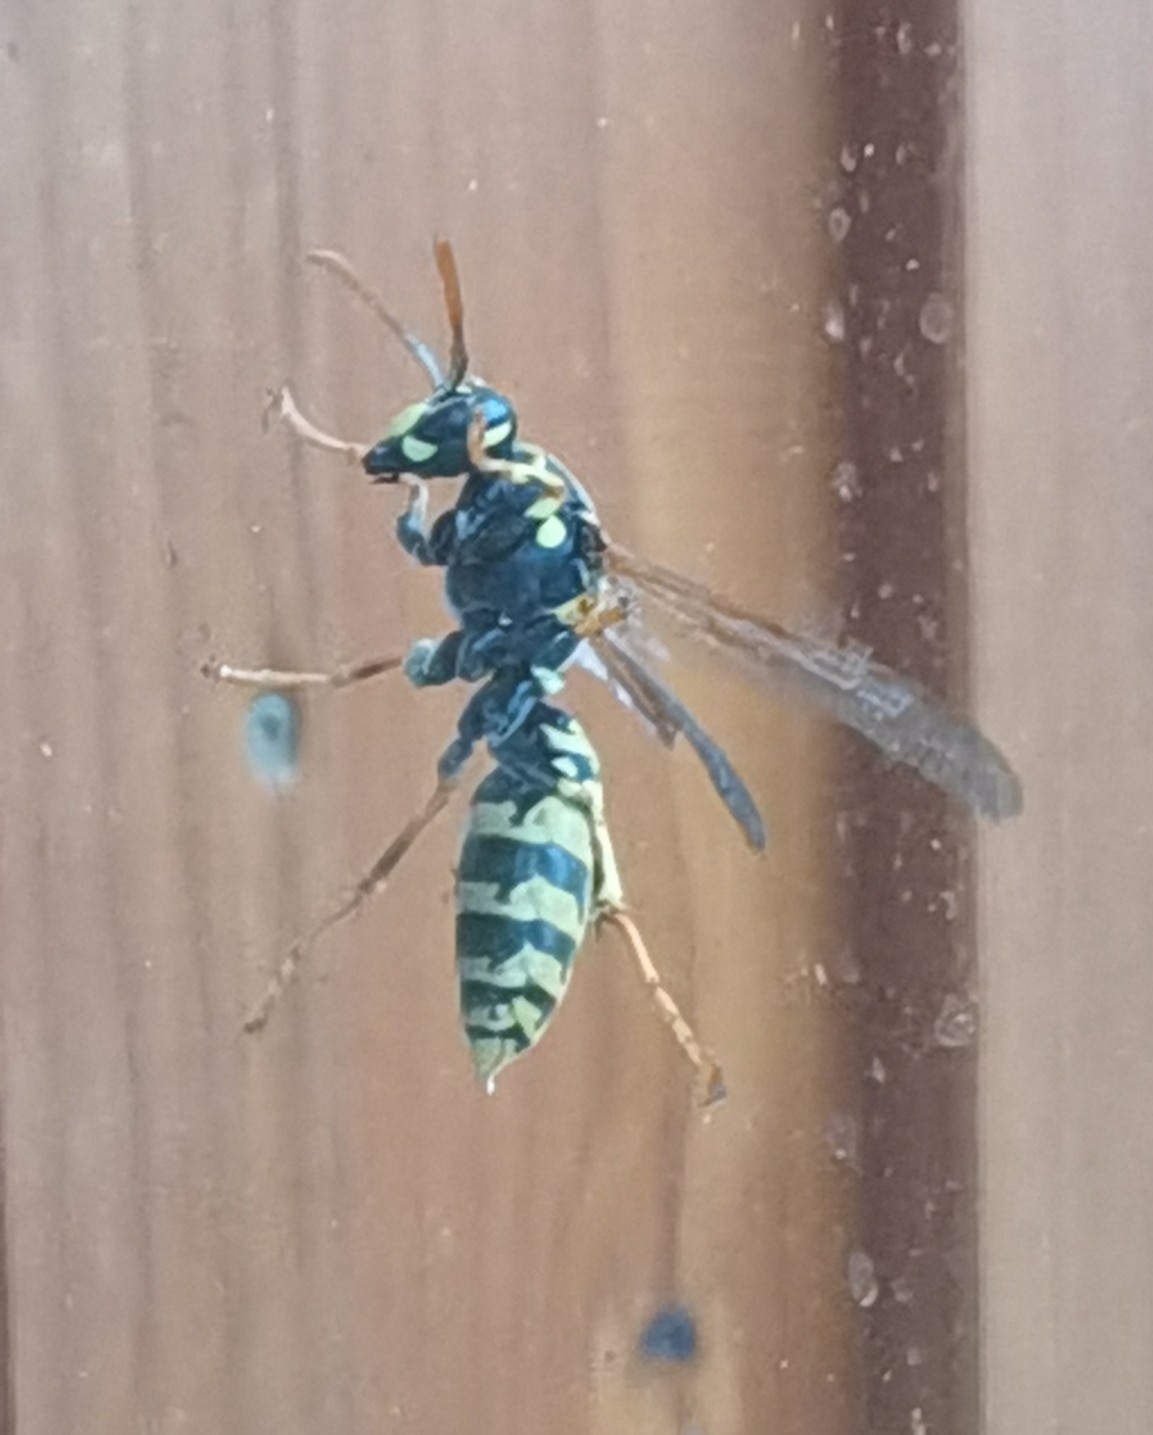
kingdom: Animalia
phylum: Arthropoda
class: Insecta
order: Hymenoptera
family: Eumenidae
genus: Polistes
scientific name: Polistes dominula
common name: Paper wasp
